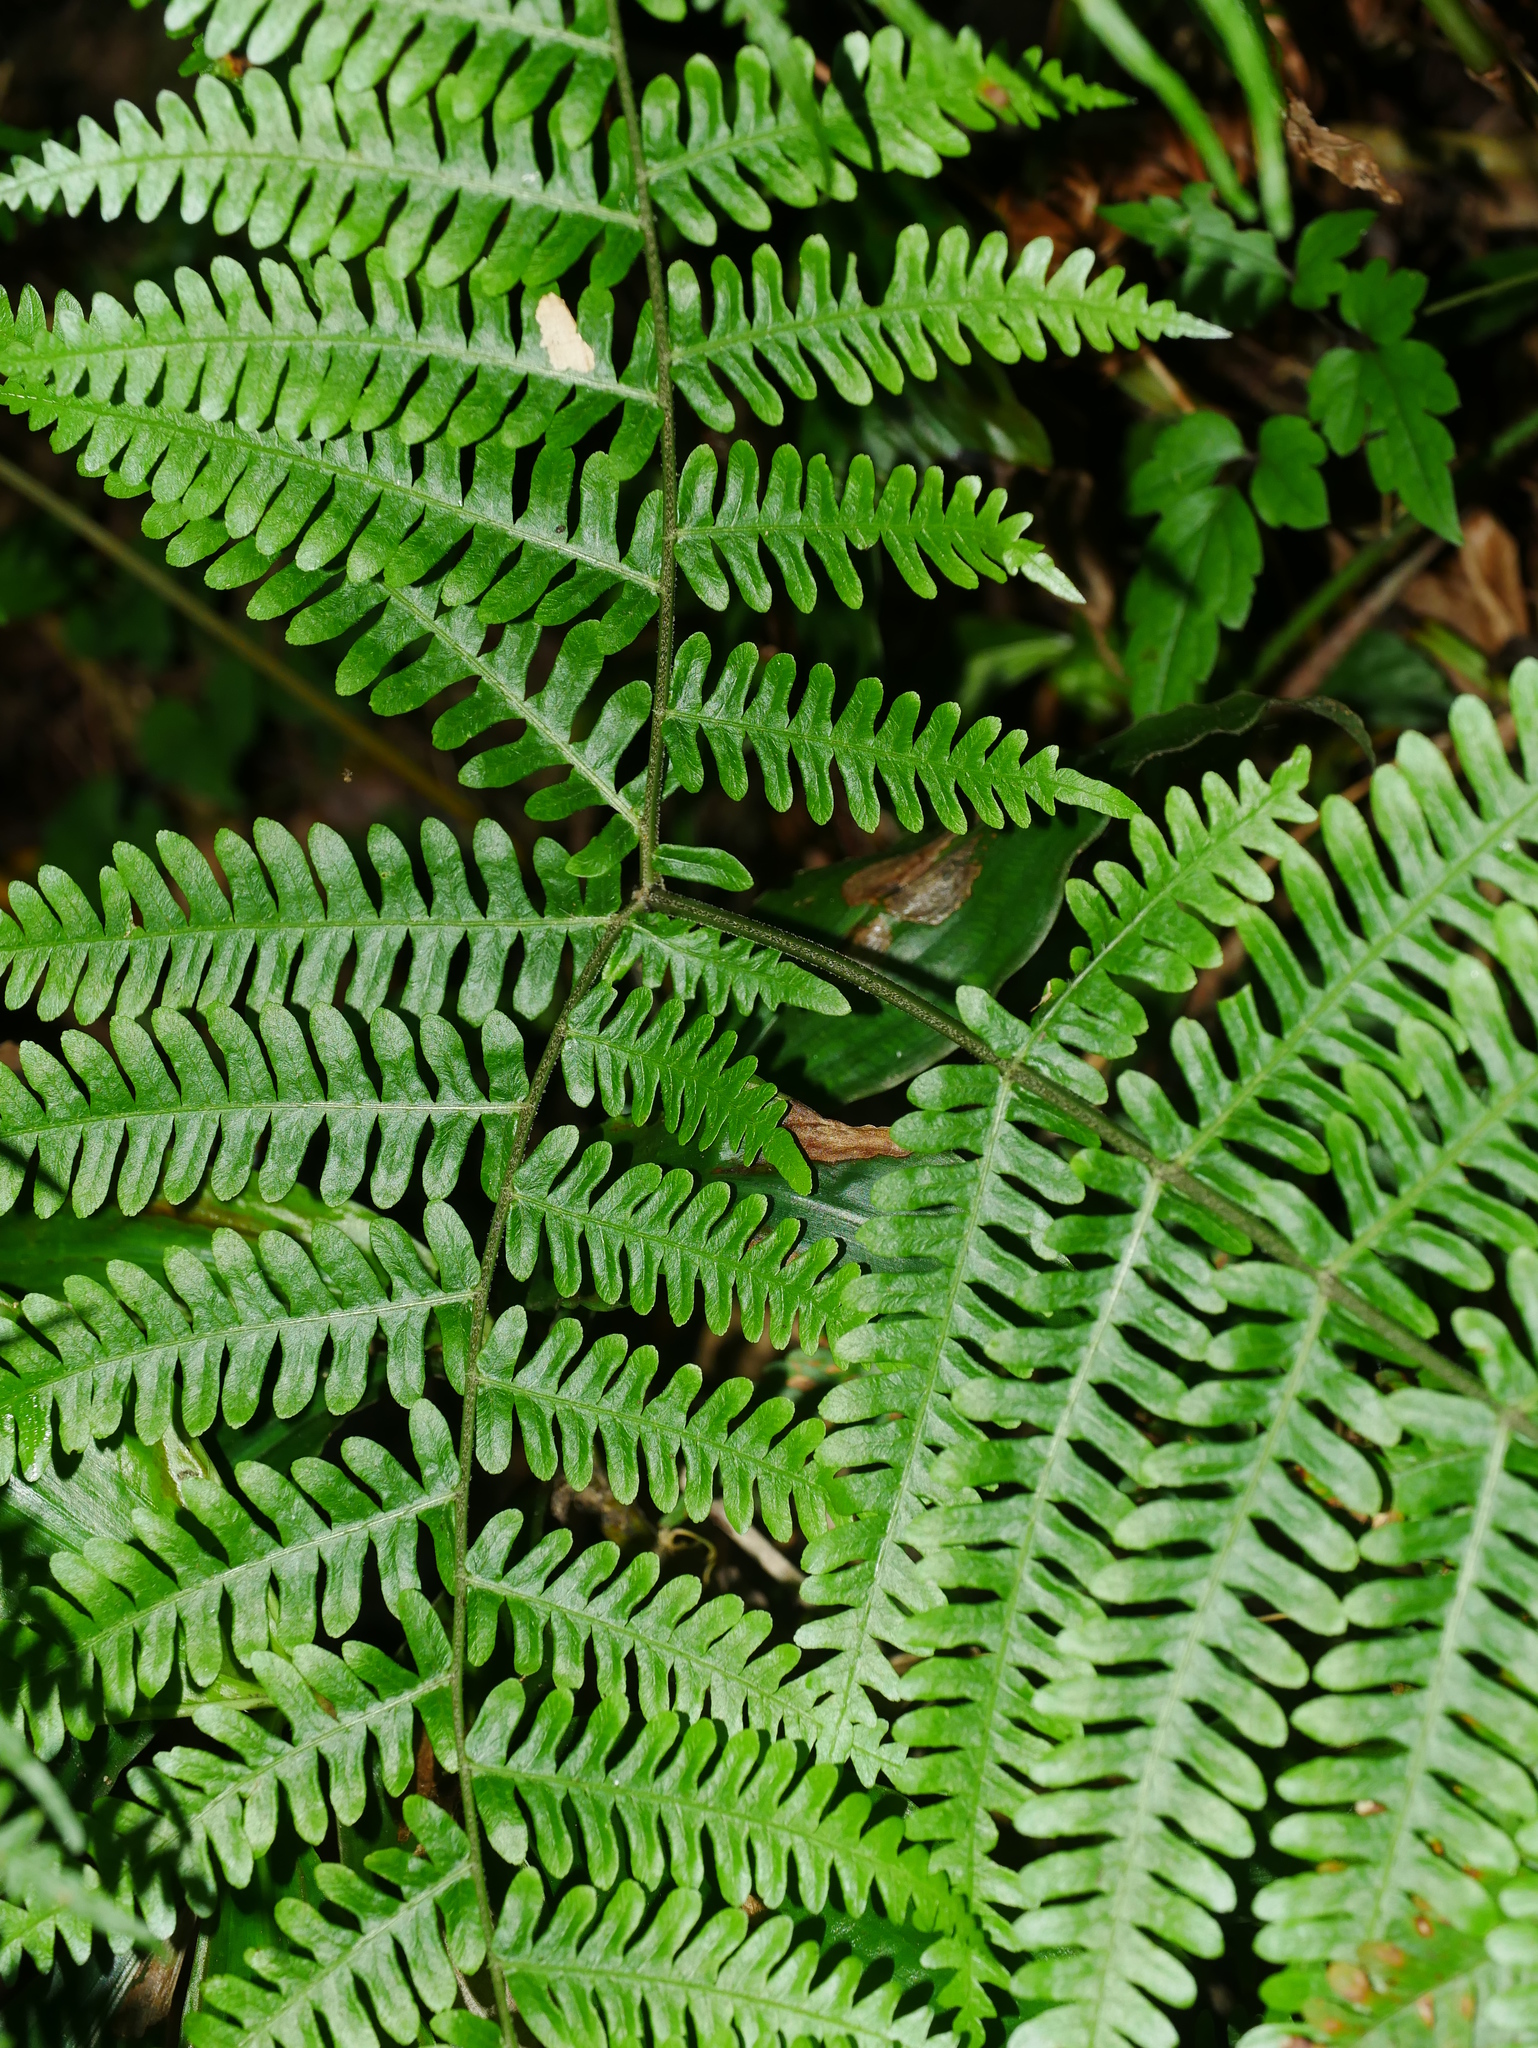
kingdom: Plantae
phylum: Tracheophyta
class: Polypodiopsida
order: Polypodiales
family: Pteridaceae
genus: Pteris
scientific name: Pteris longipes
